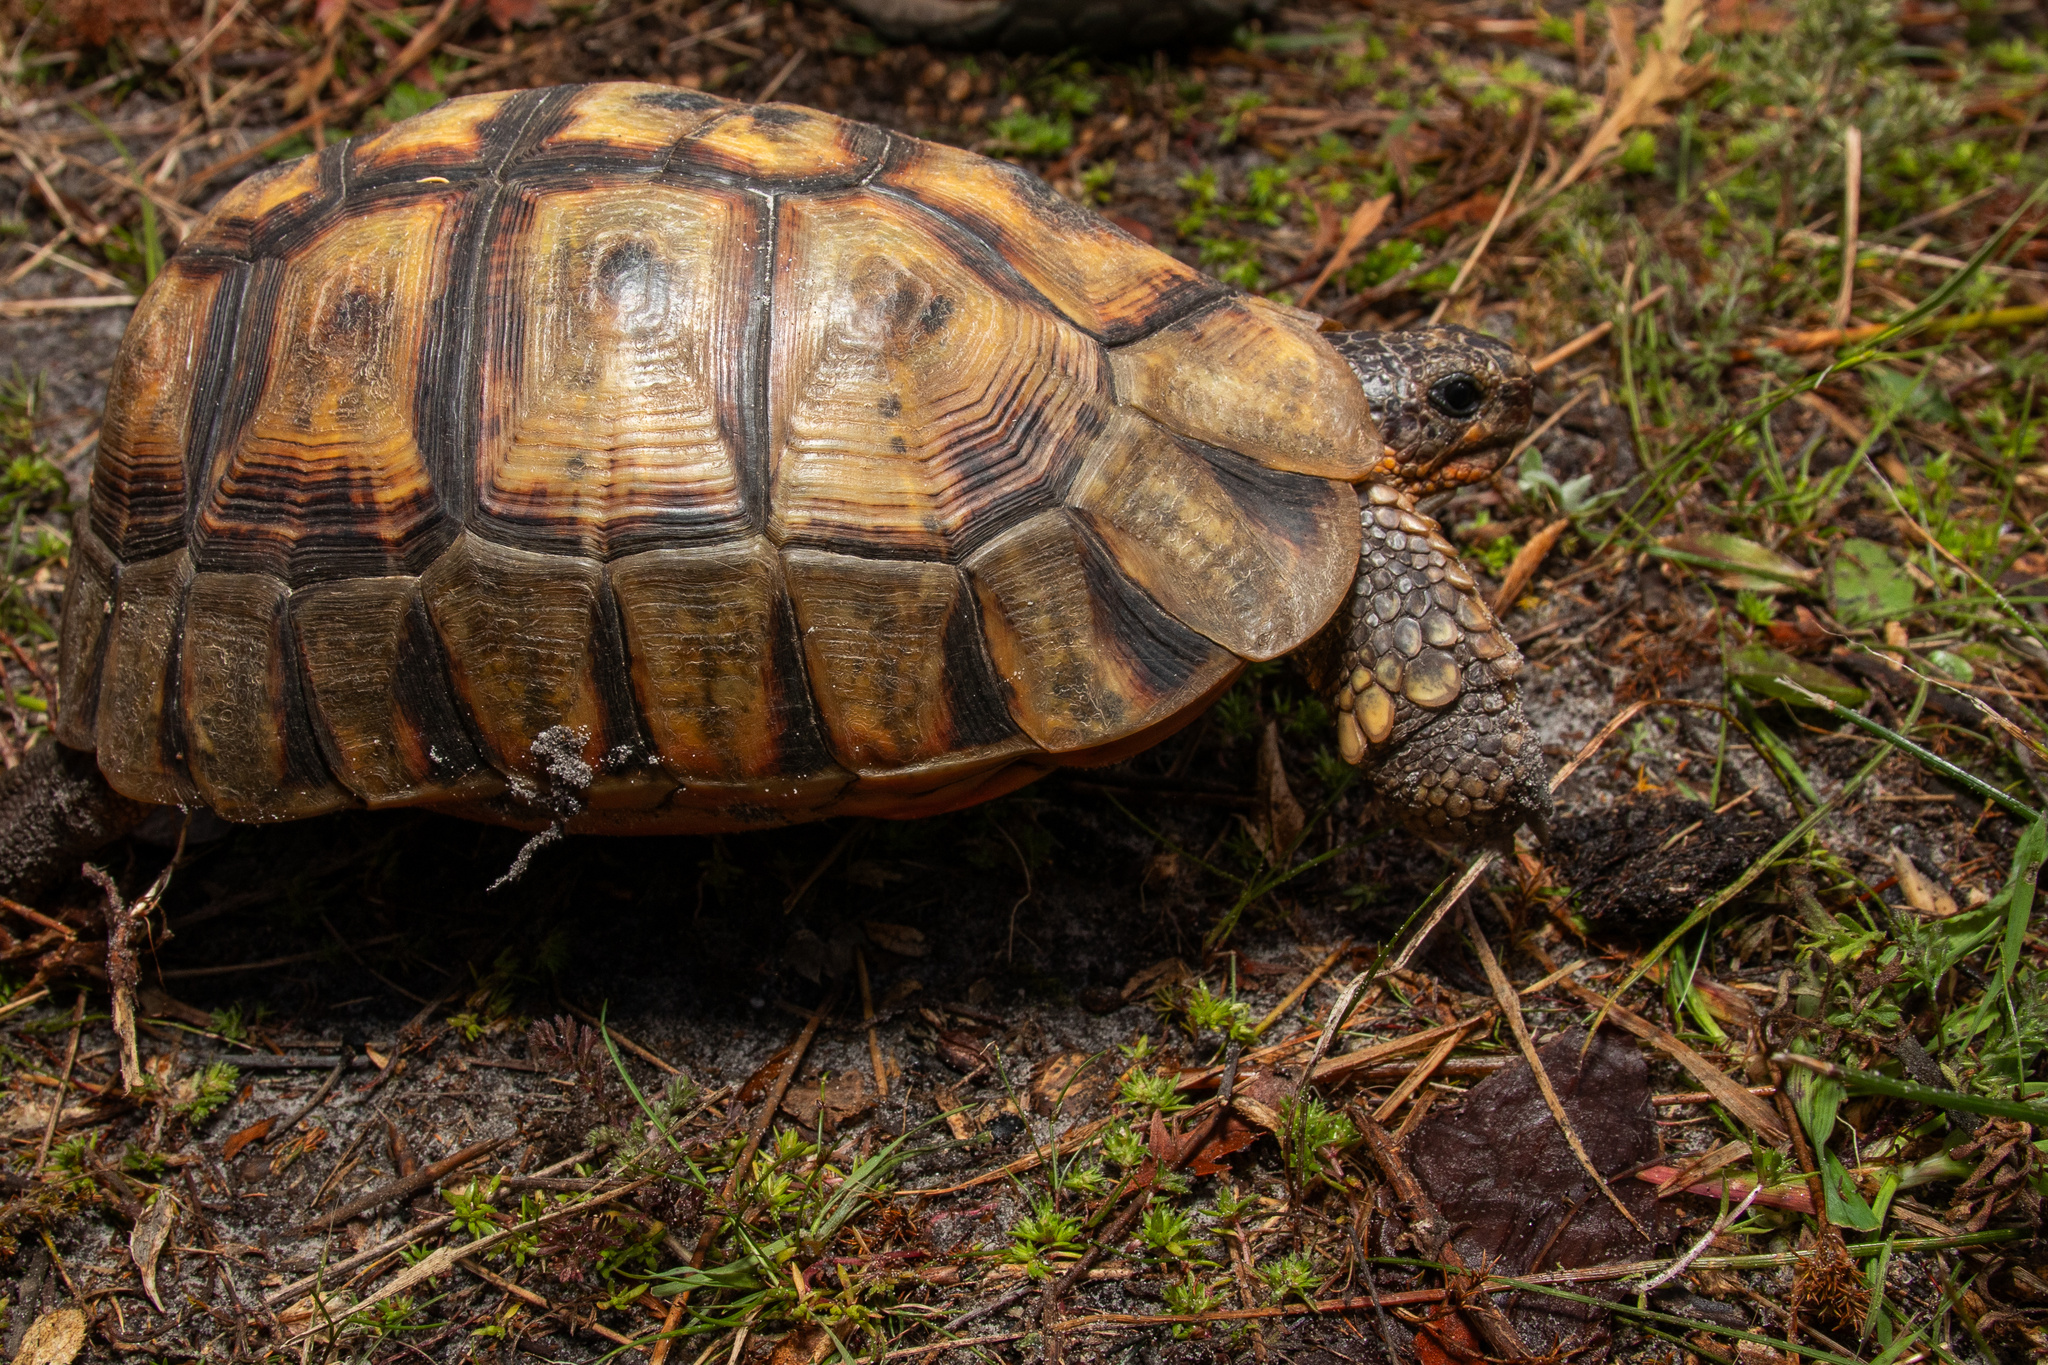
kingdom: Animalia
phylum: Chordata
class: Testudines
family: Testudinidae
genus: Chersina
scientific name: Chersina angulata
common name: South african bowsprit tortoise
